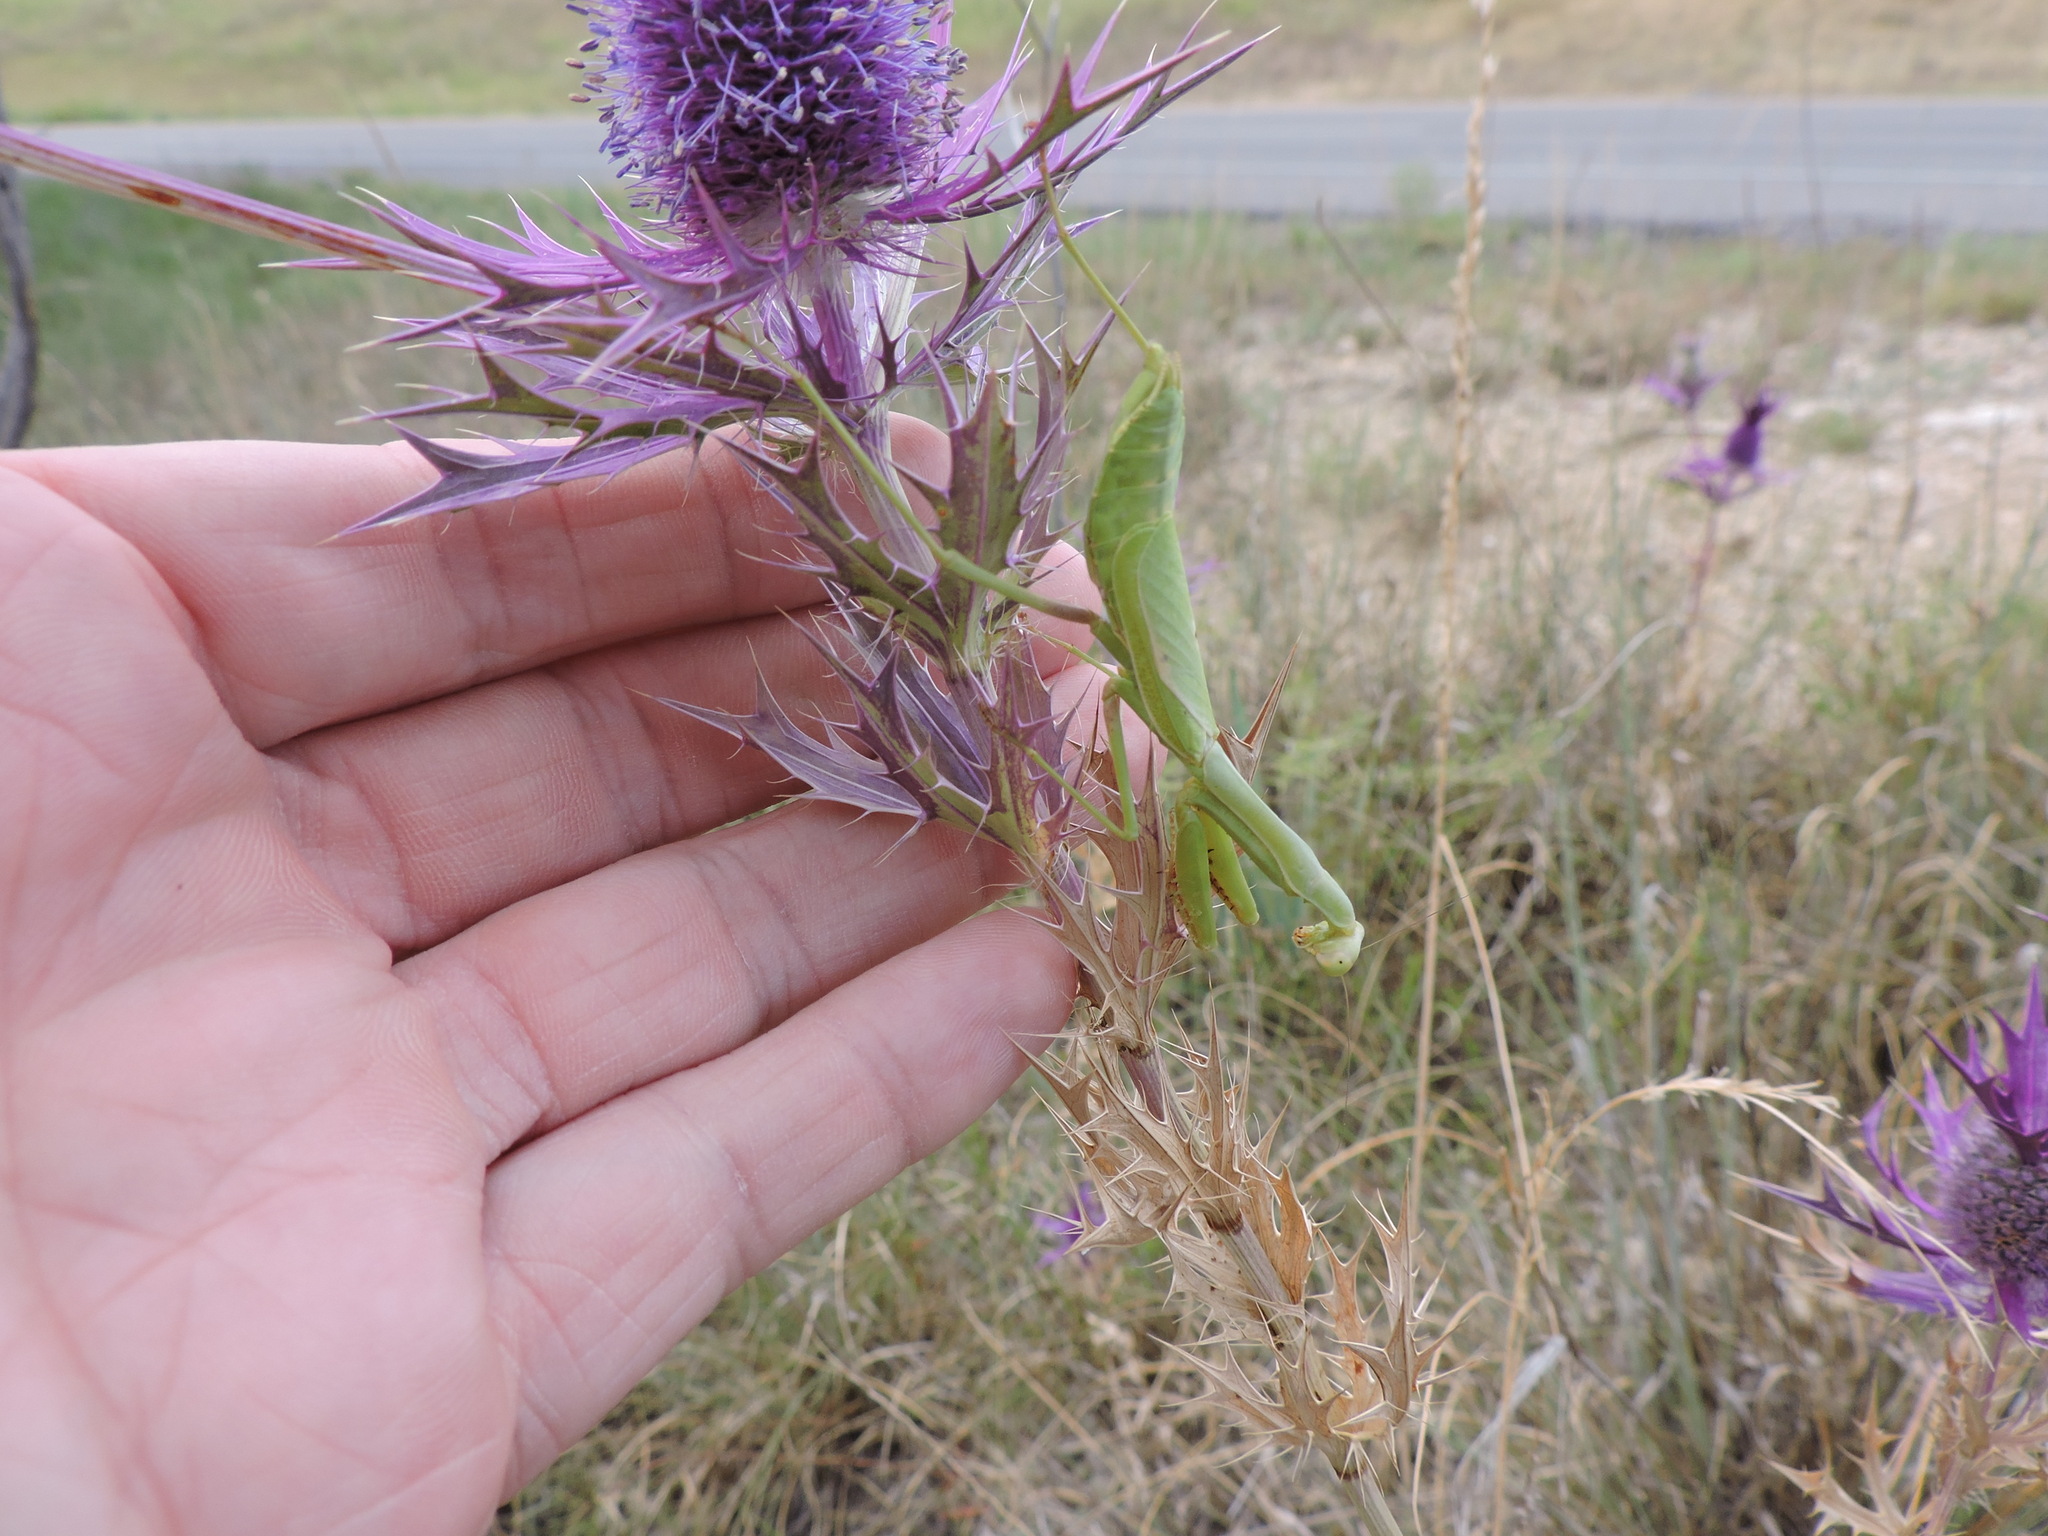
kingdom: Animalia
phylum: Arthropoda
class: Insecta
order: Mantodea
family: Mantidae
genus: Stagmomantis
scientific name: Stagmomantis carolina
